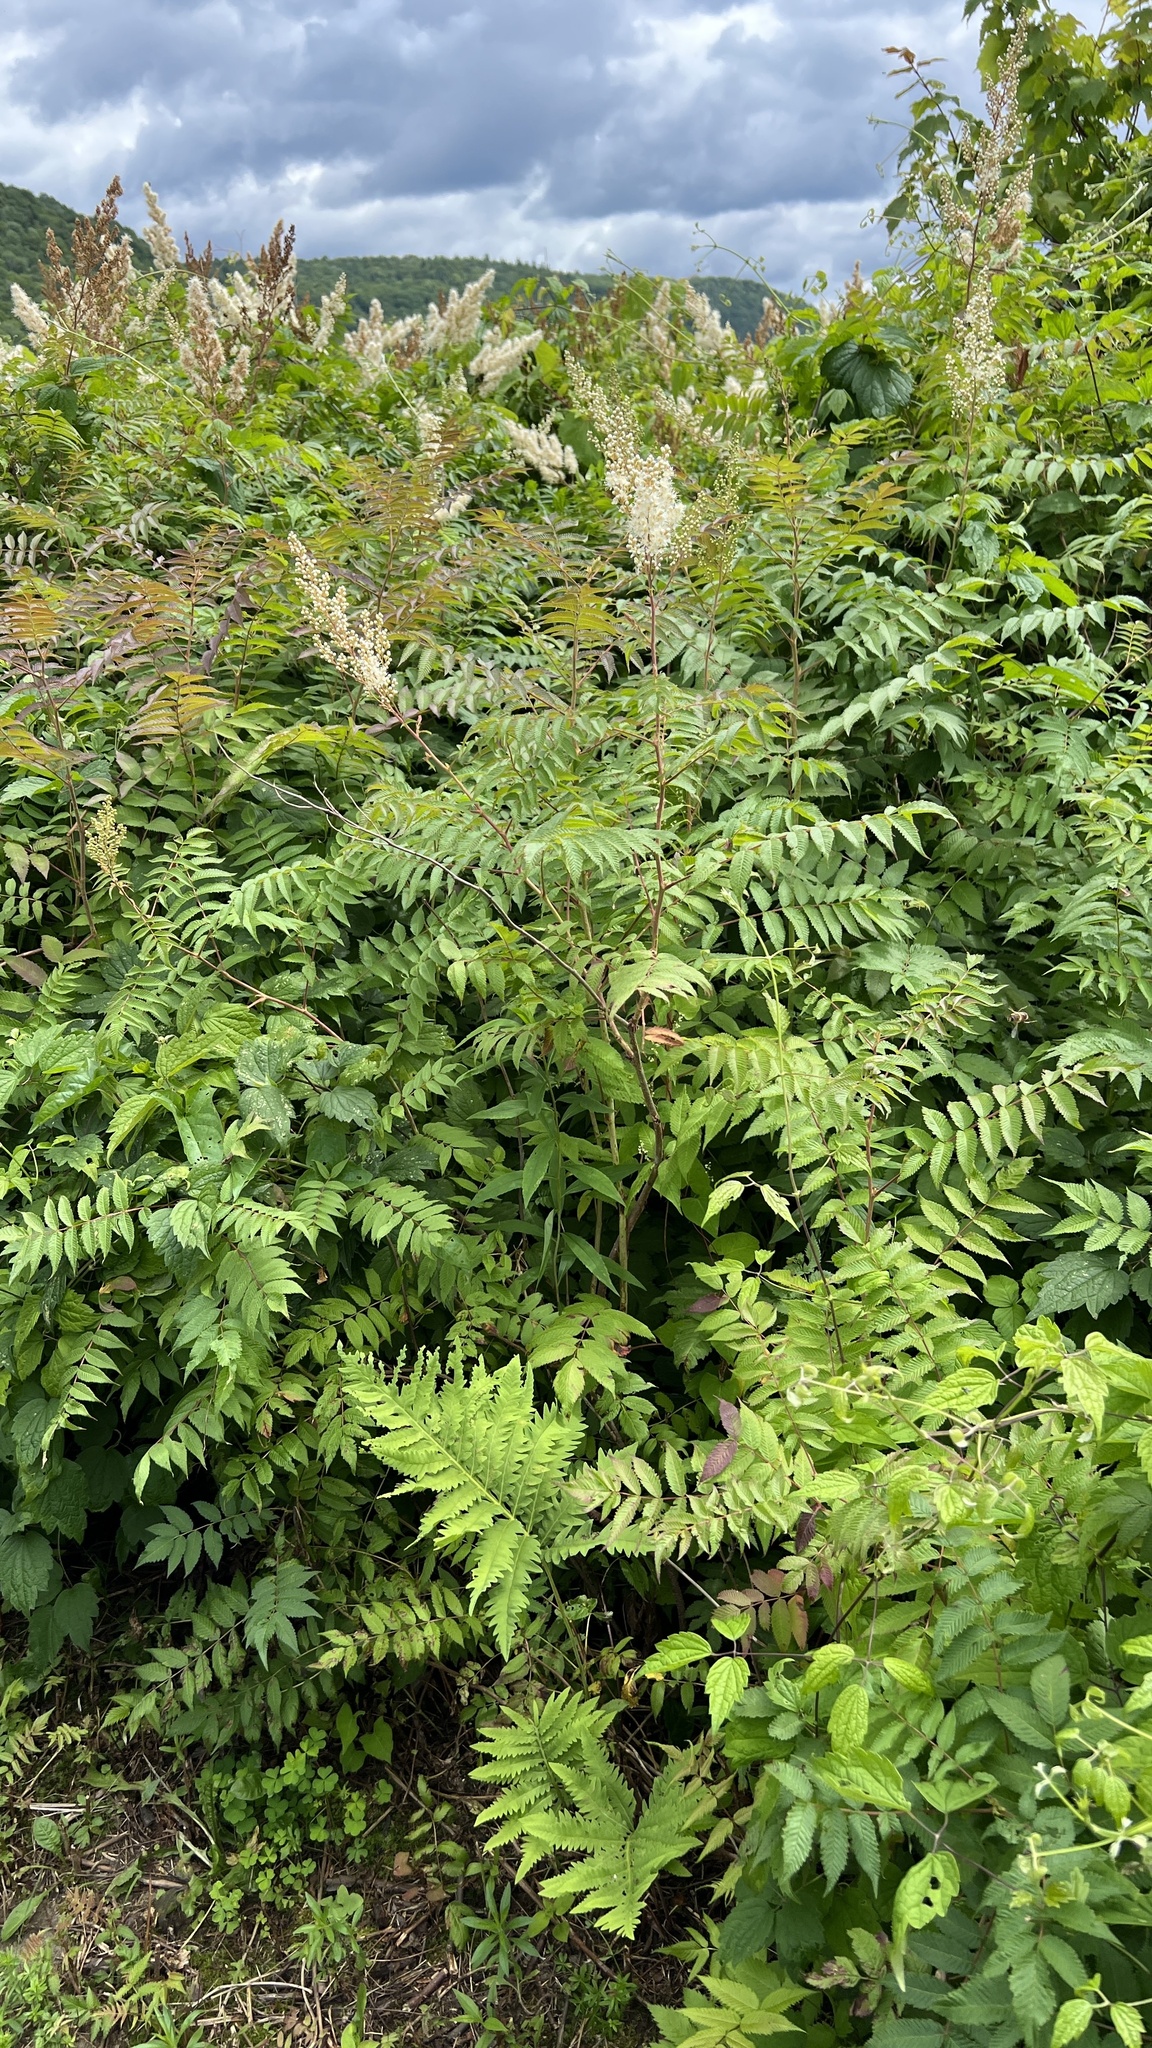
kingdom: Plantae
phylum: Tracheophyta
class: Magnoliopsida
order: Rosales
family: Rosaceae
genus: Sorbaria
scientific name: Sorbaria sorbifolia
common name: False spiraea
